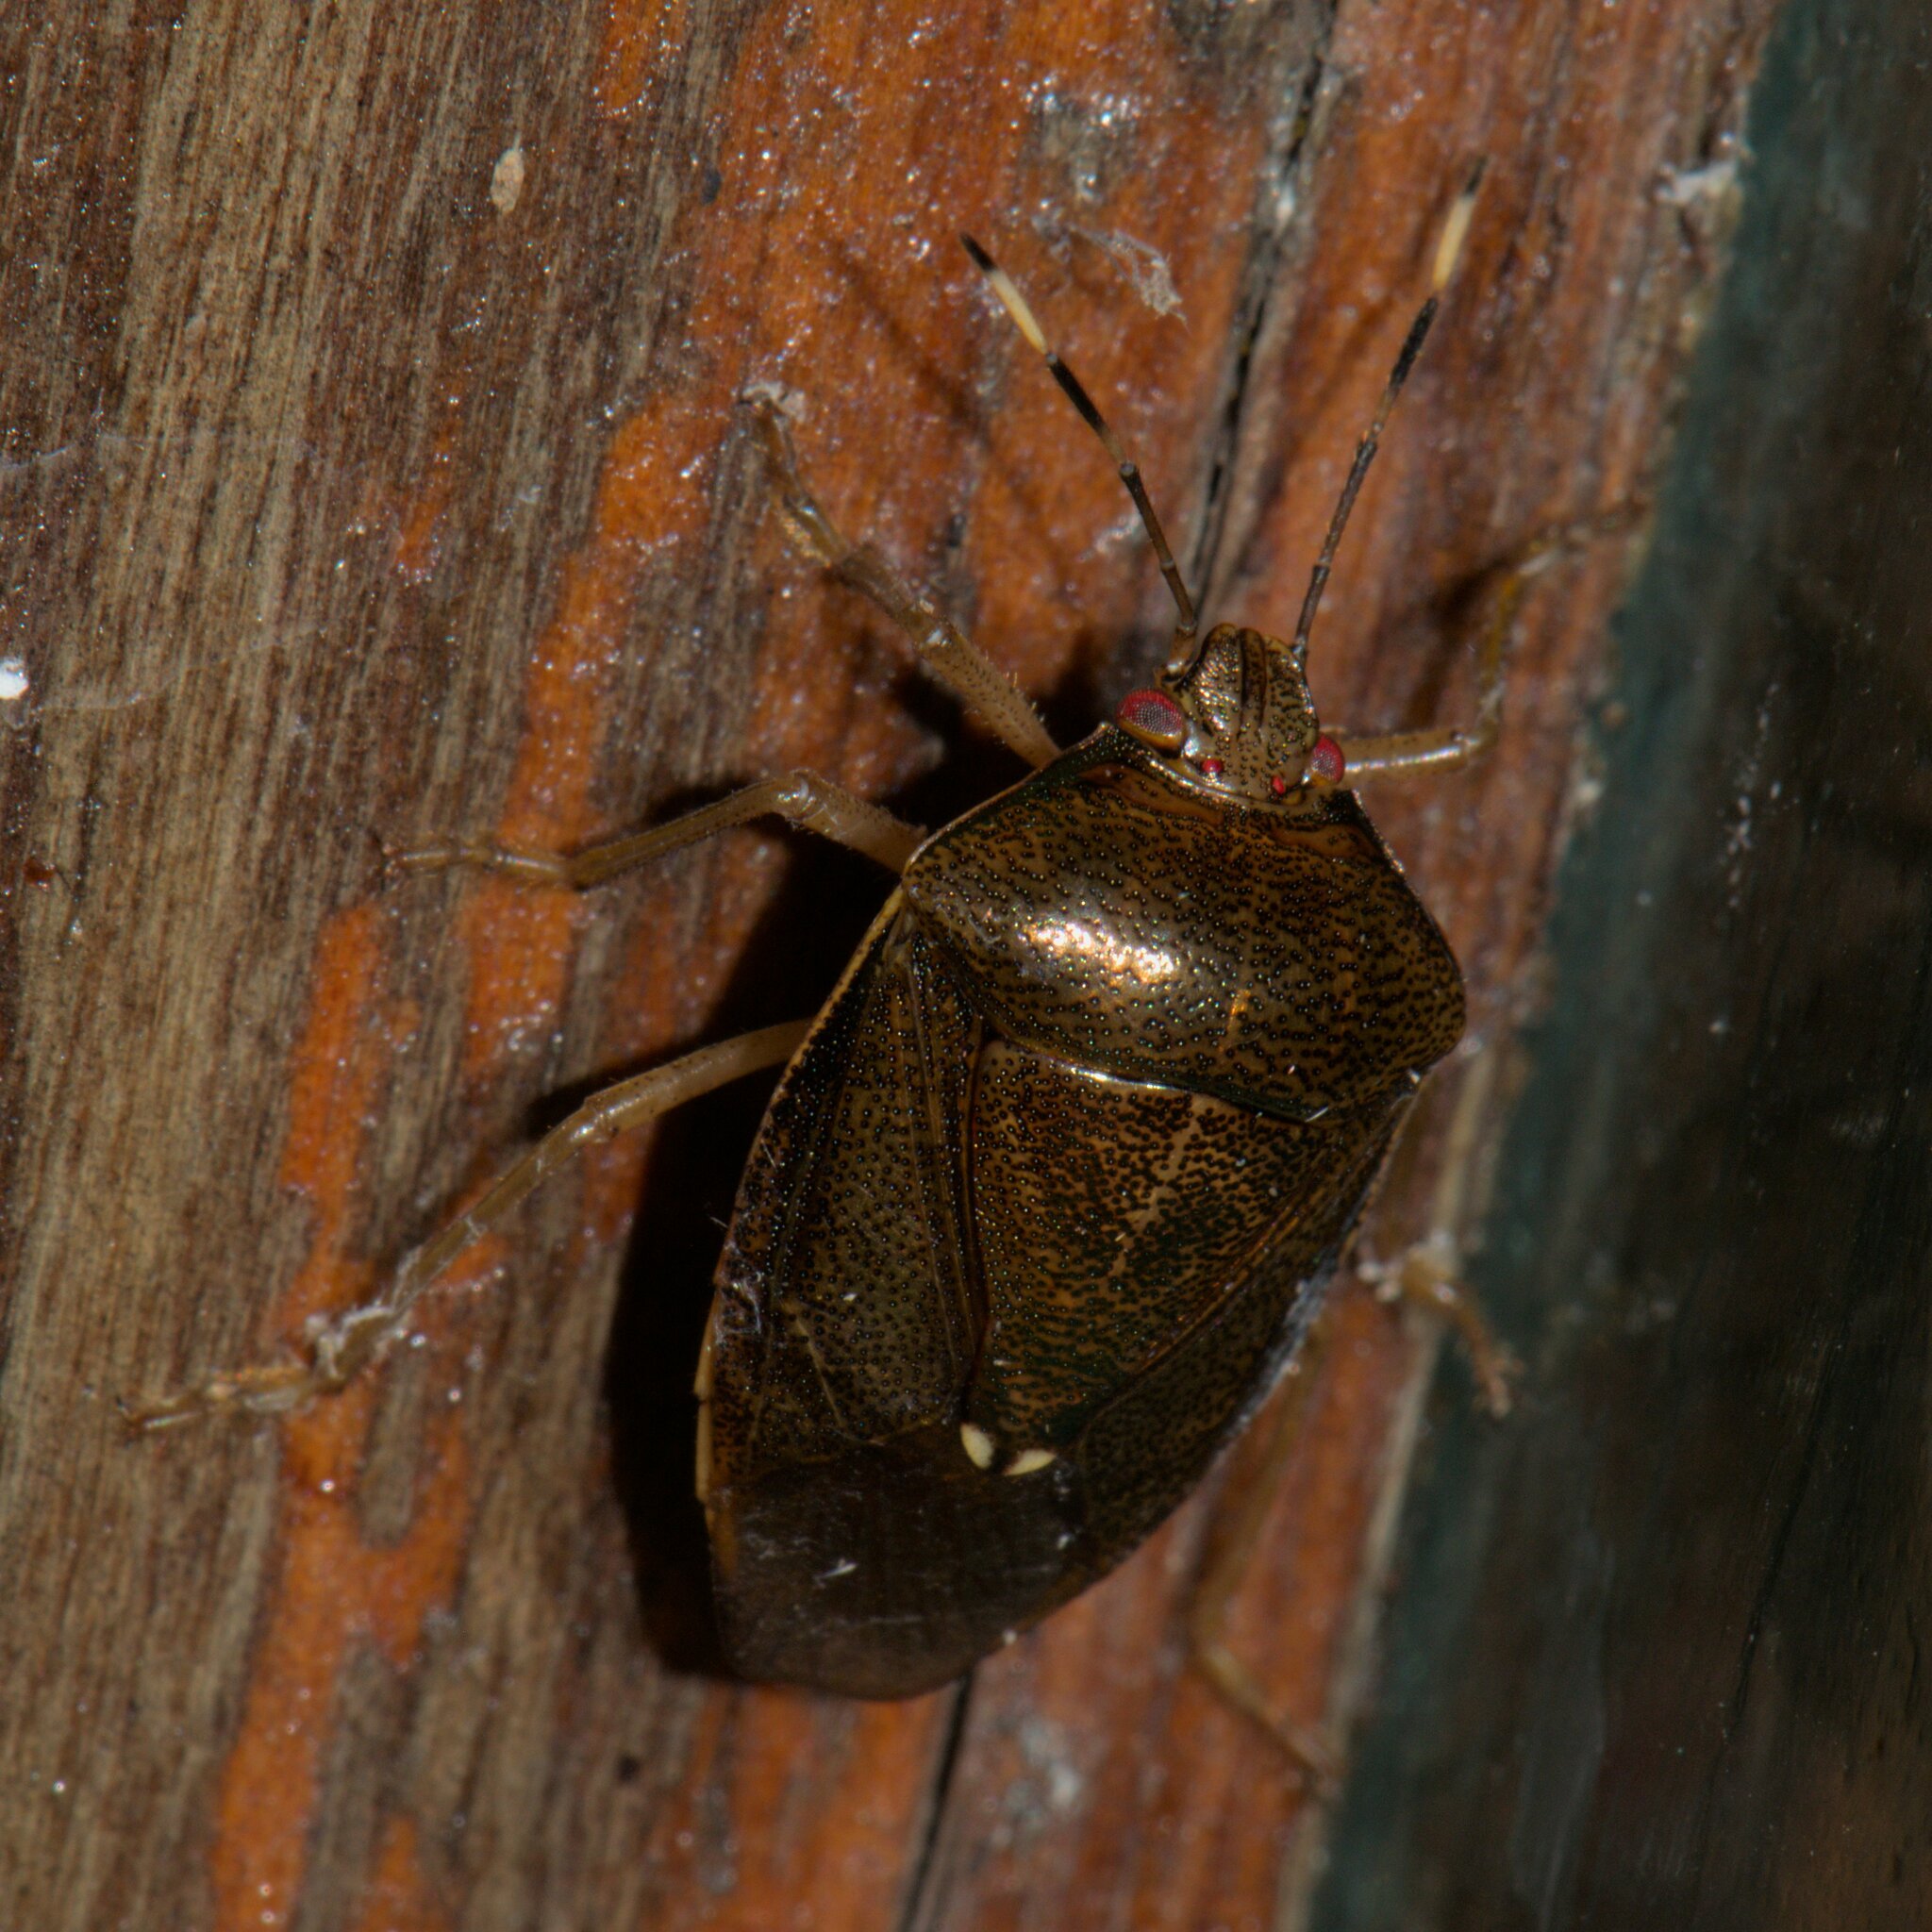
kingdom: Animalia
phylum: Arthropoda
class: Insecta
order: Hemiptera
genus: Phavorinus
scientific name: Phavorinus
